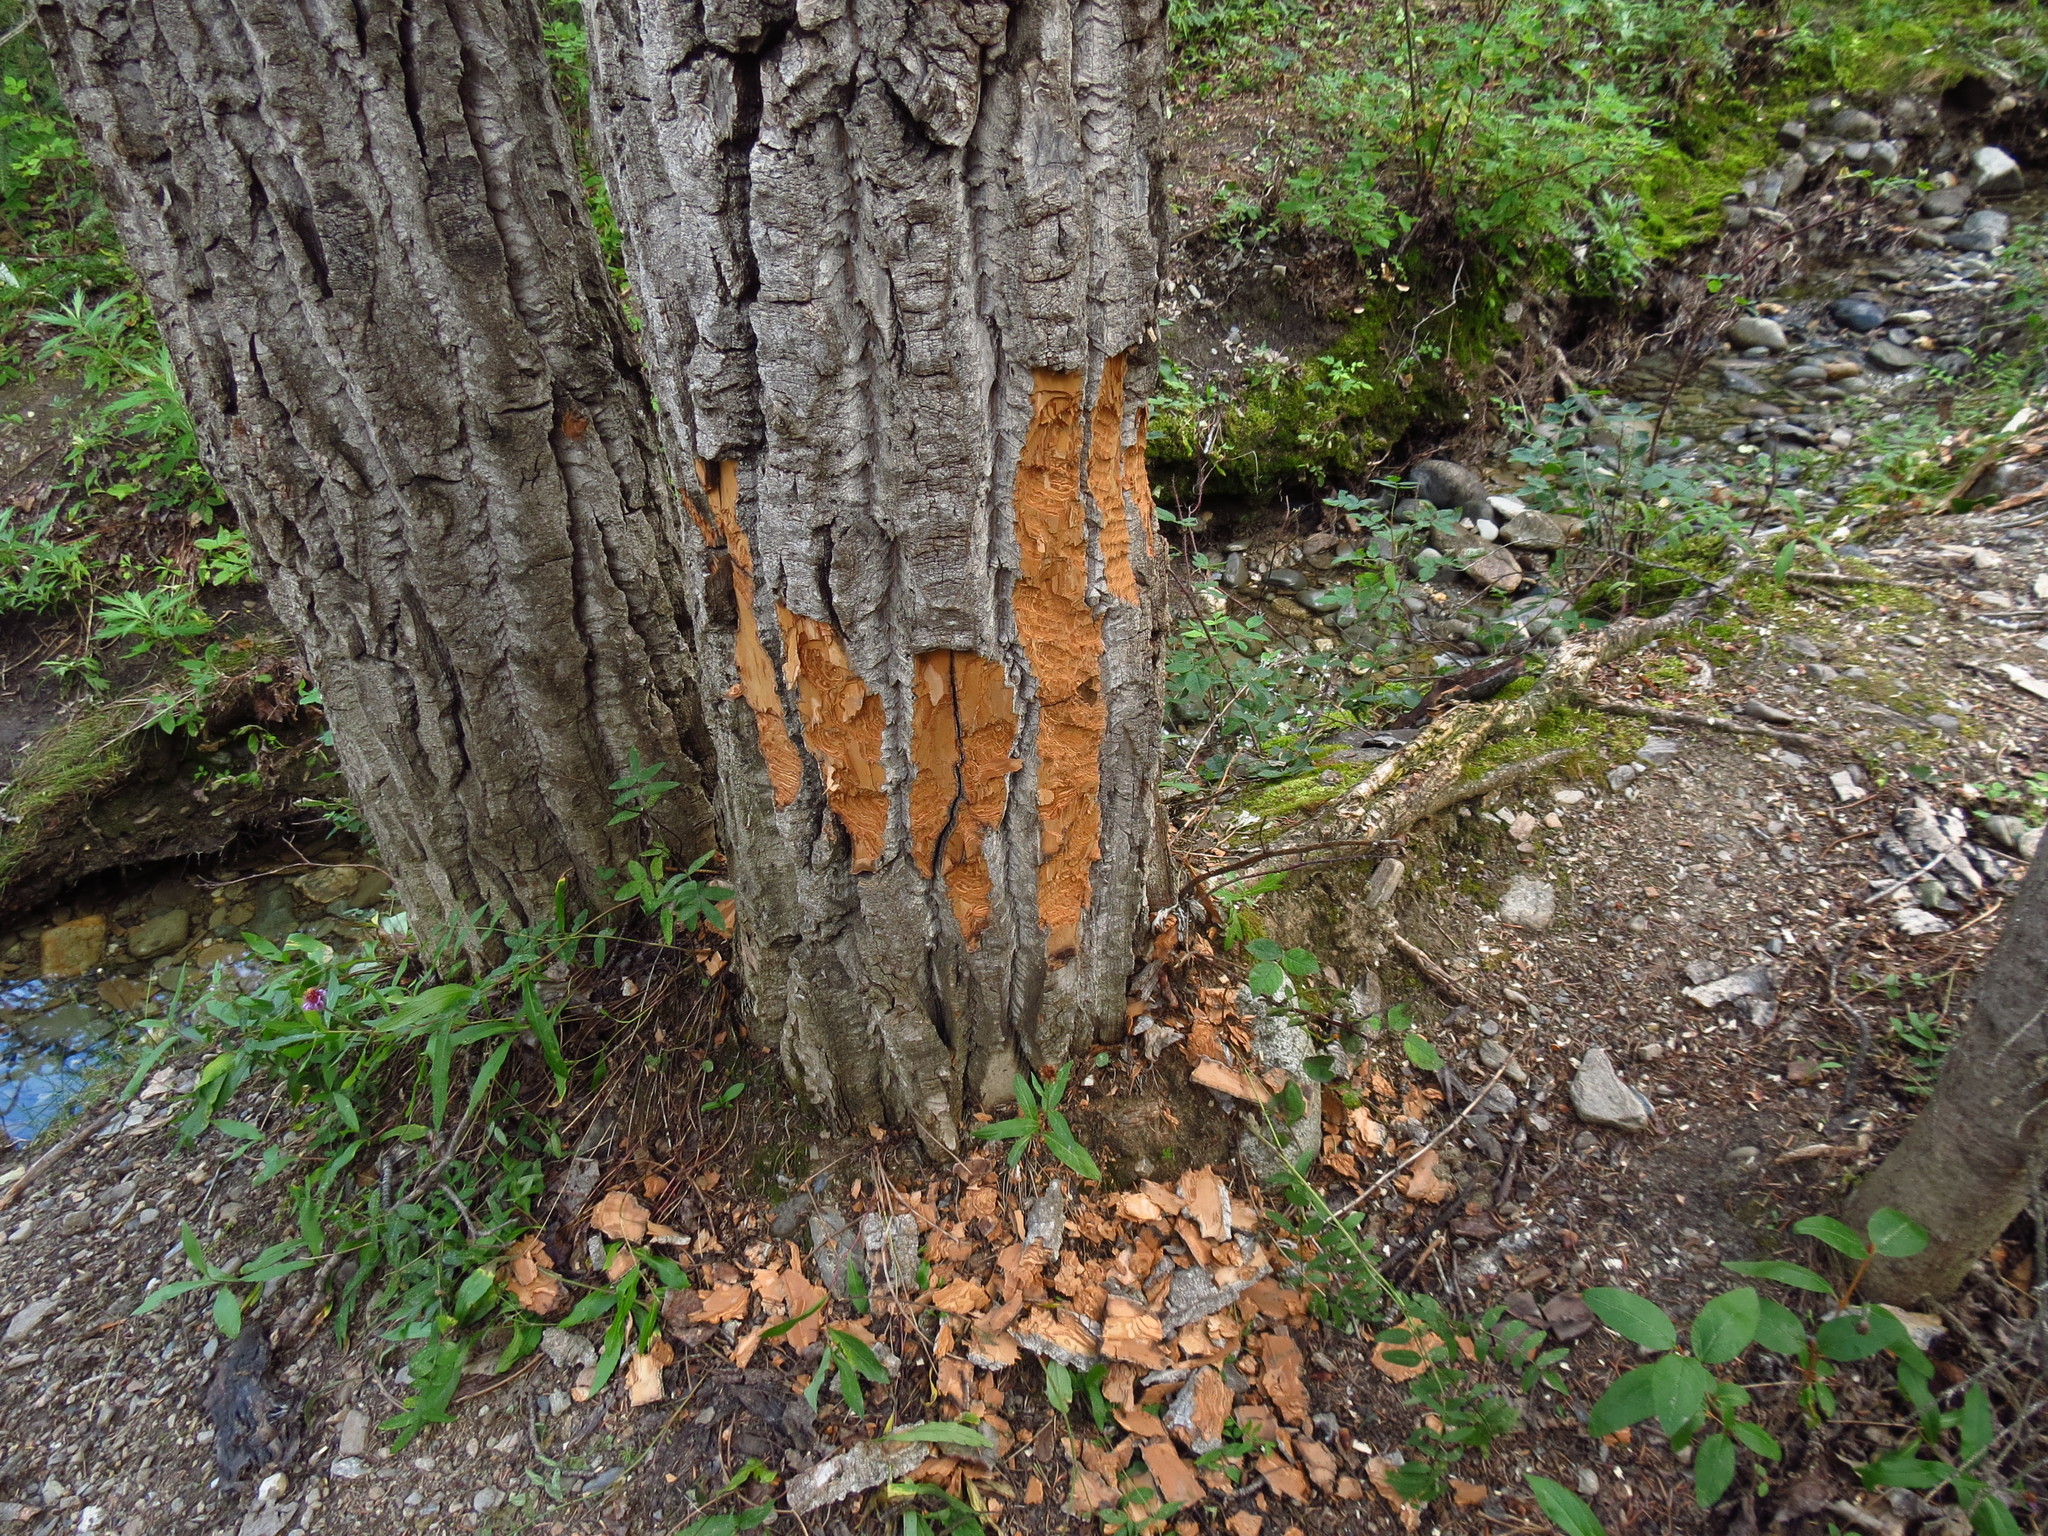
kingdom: Animalia
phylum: Chordata
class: Mammalia
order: Rodentia
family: Castoridae
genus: Castor
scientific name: Castor canadensis
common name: American beaver
